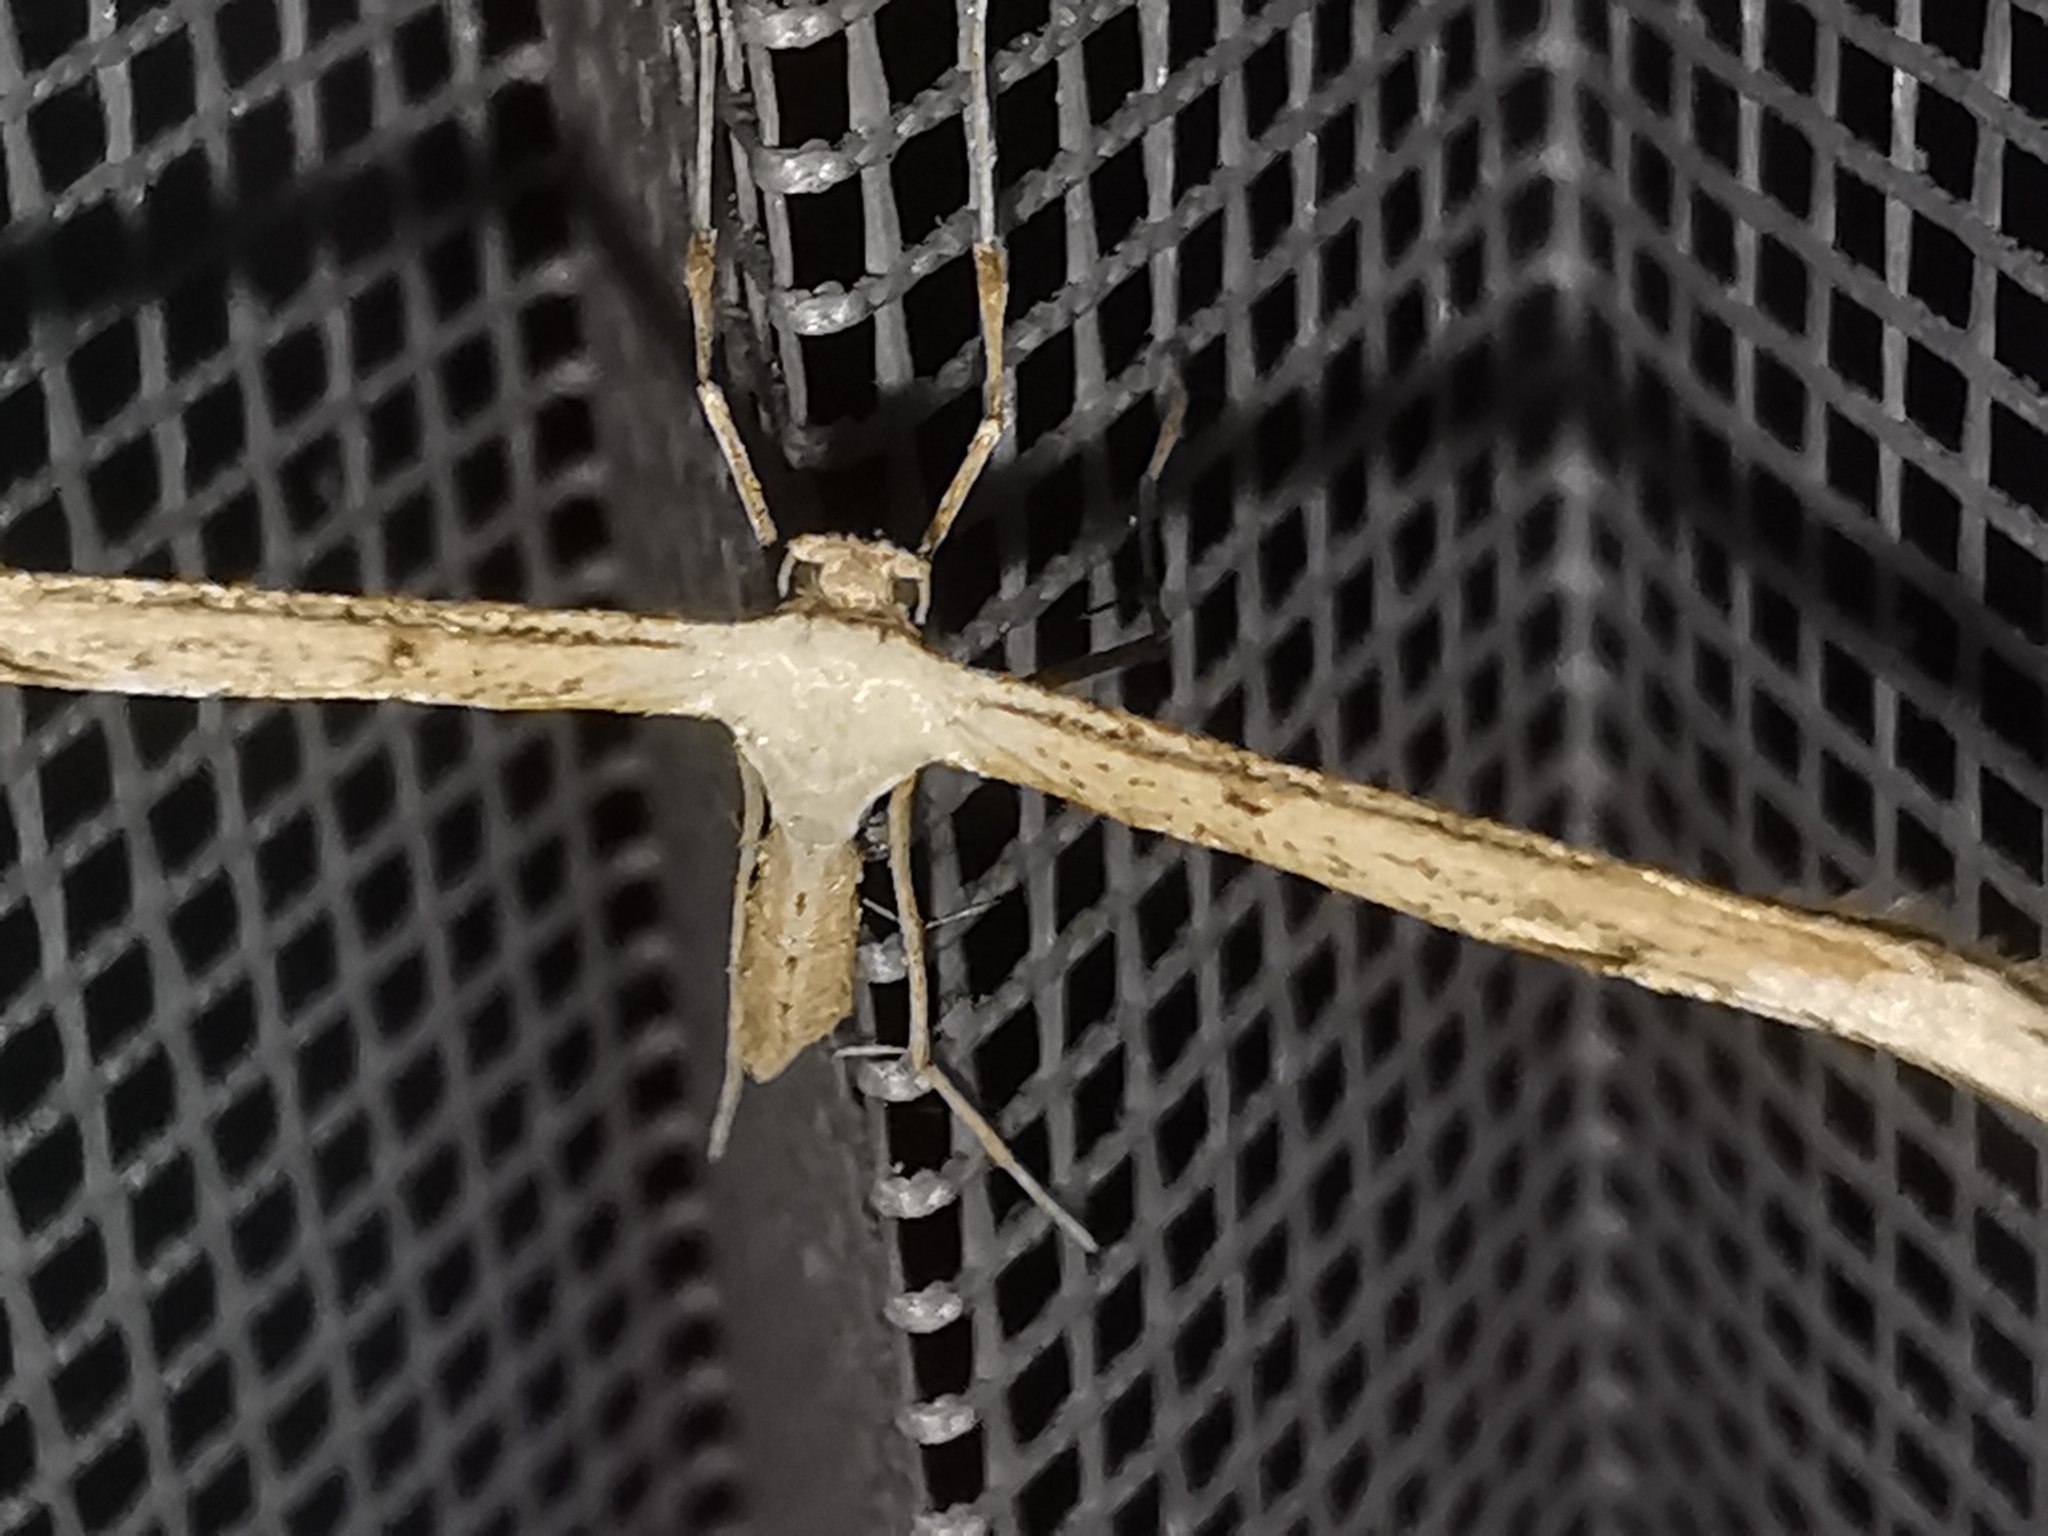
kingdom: Animalia
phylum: Arthropoda
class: Insecta
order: Lepidoptera
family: Pterophoridae
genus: Emmelina
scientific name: Emmelina monodactyla
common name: Common plume
